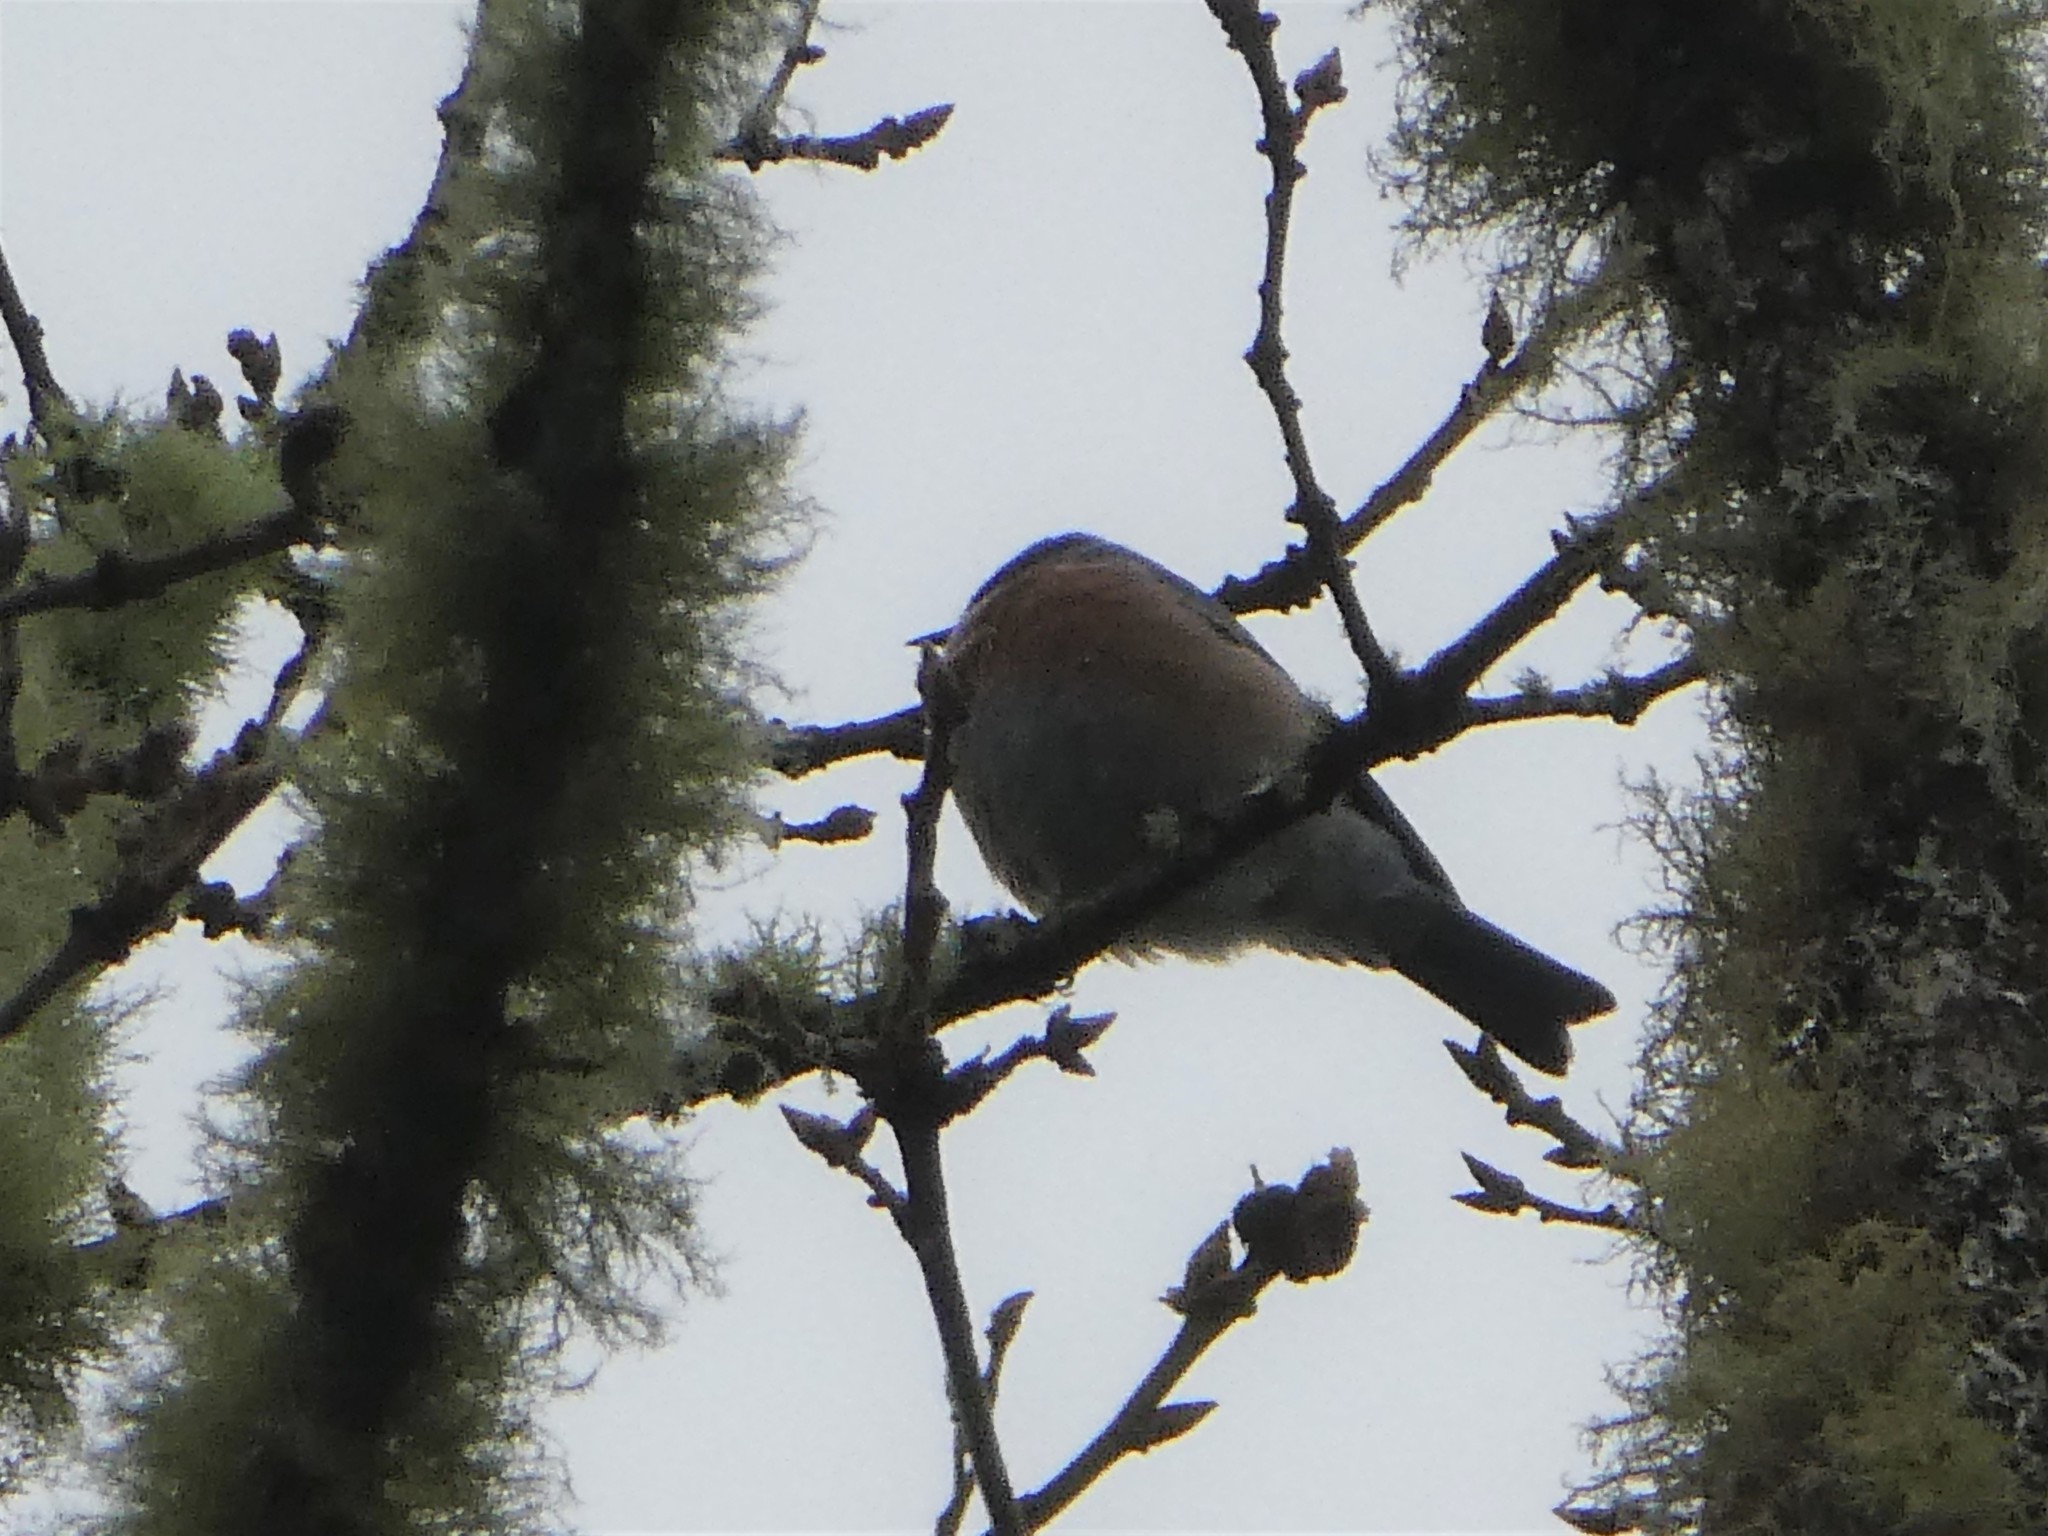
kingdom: Animalia
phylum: Chordata
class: Aves
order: Passeriformes
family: Turdidae
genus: Sialia
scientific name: Sialia mexicana
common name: Western bluebird
